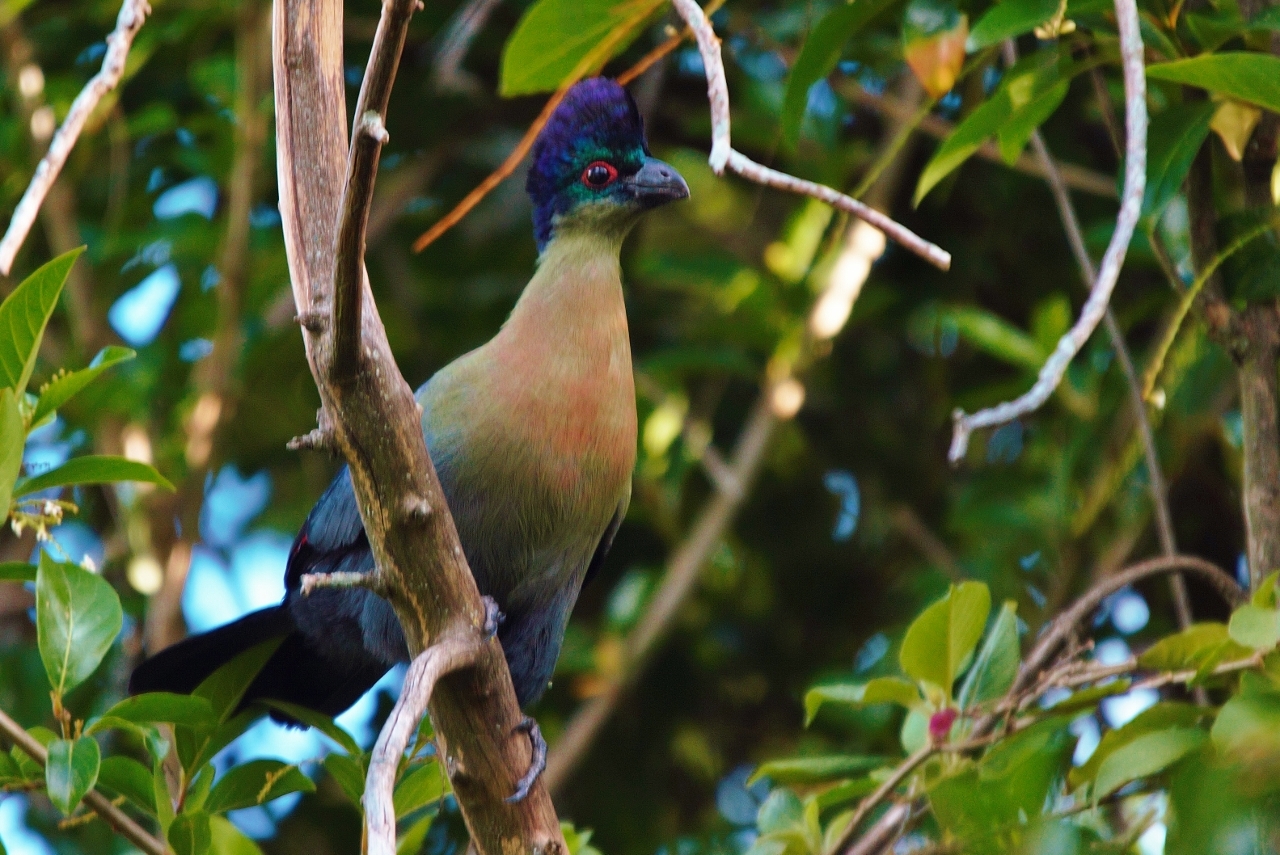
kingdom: Animalia
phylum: Chordata
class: Aves
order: Musophagiformes
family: Musophagidae
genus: Tauraco
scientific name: Tauraco porphyreolophus
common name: Purple-crested turaco
